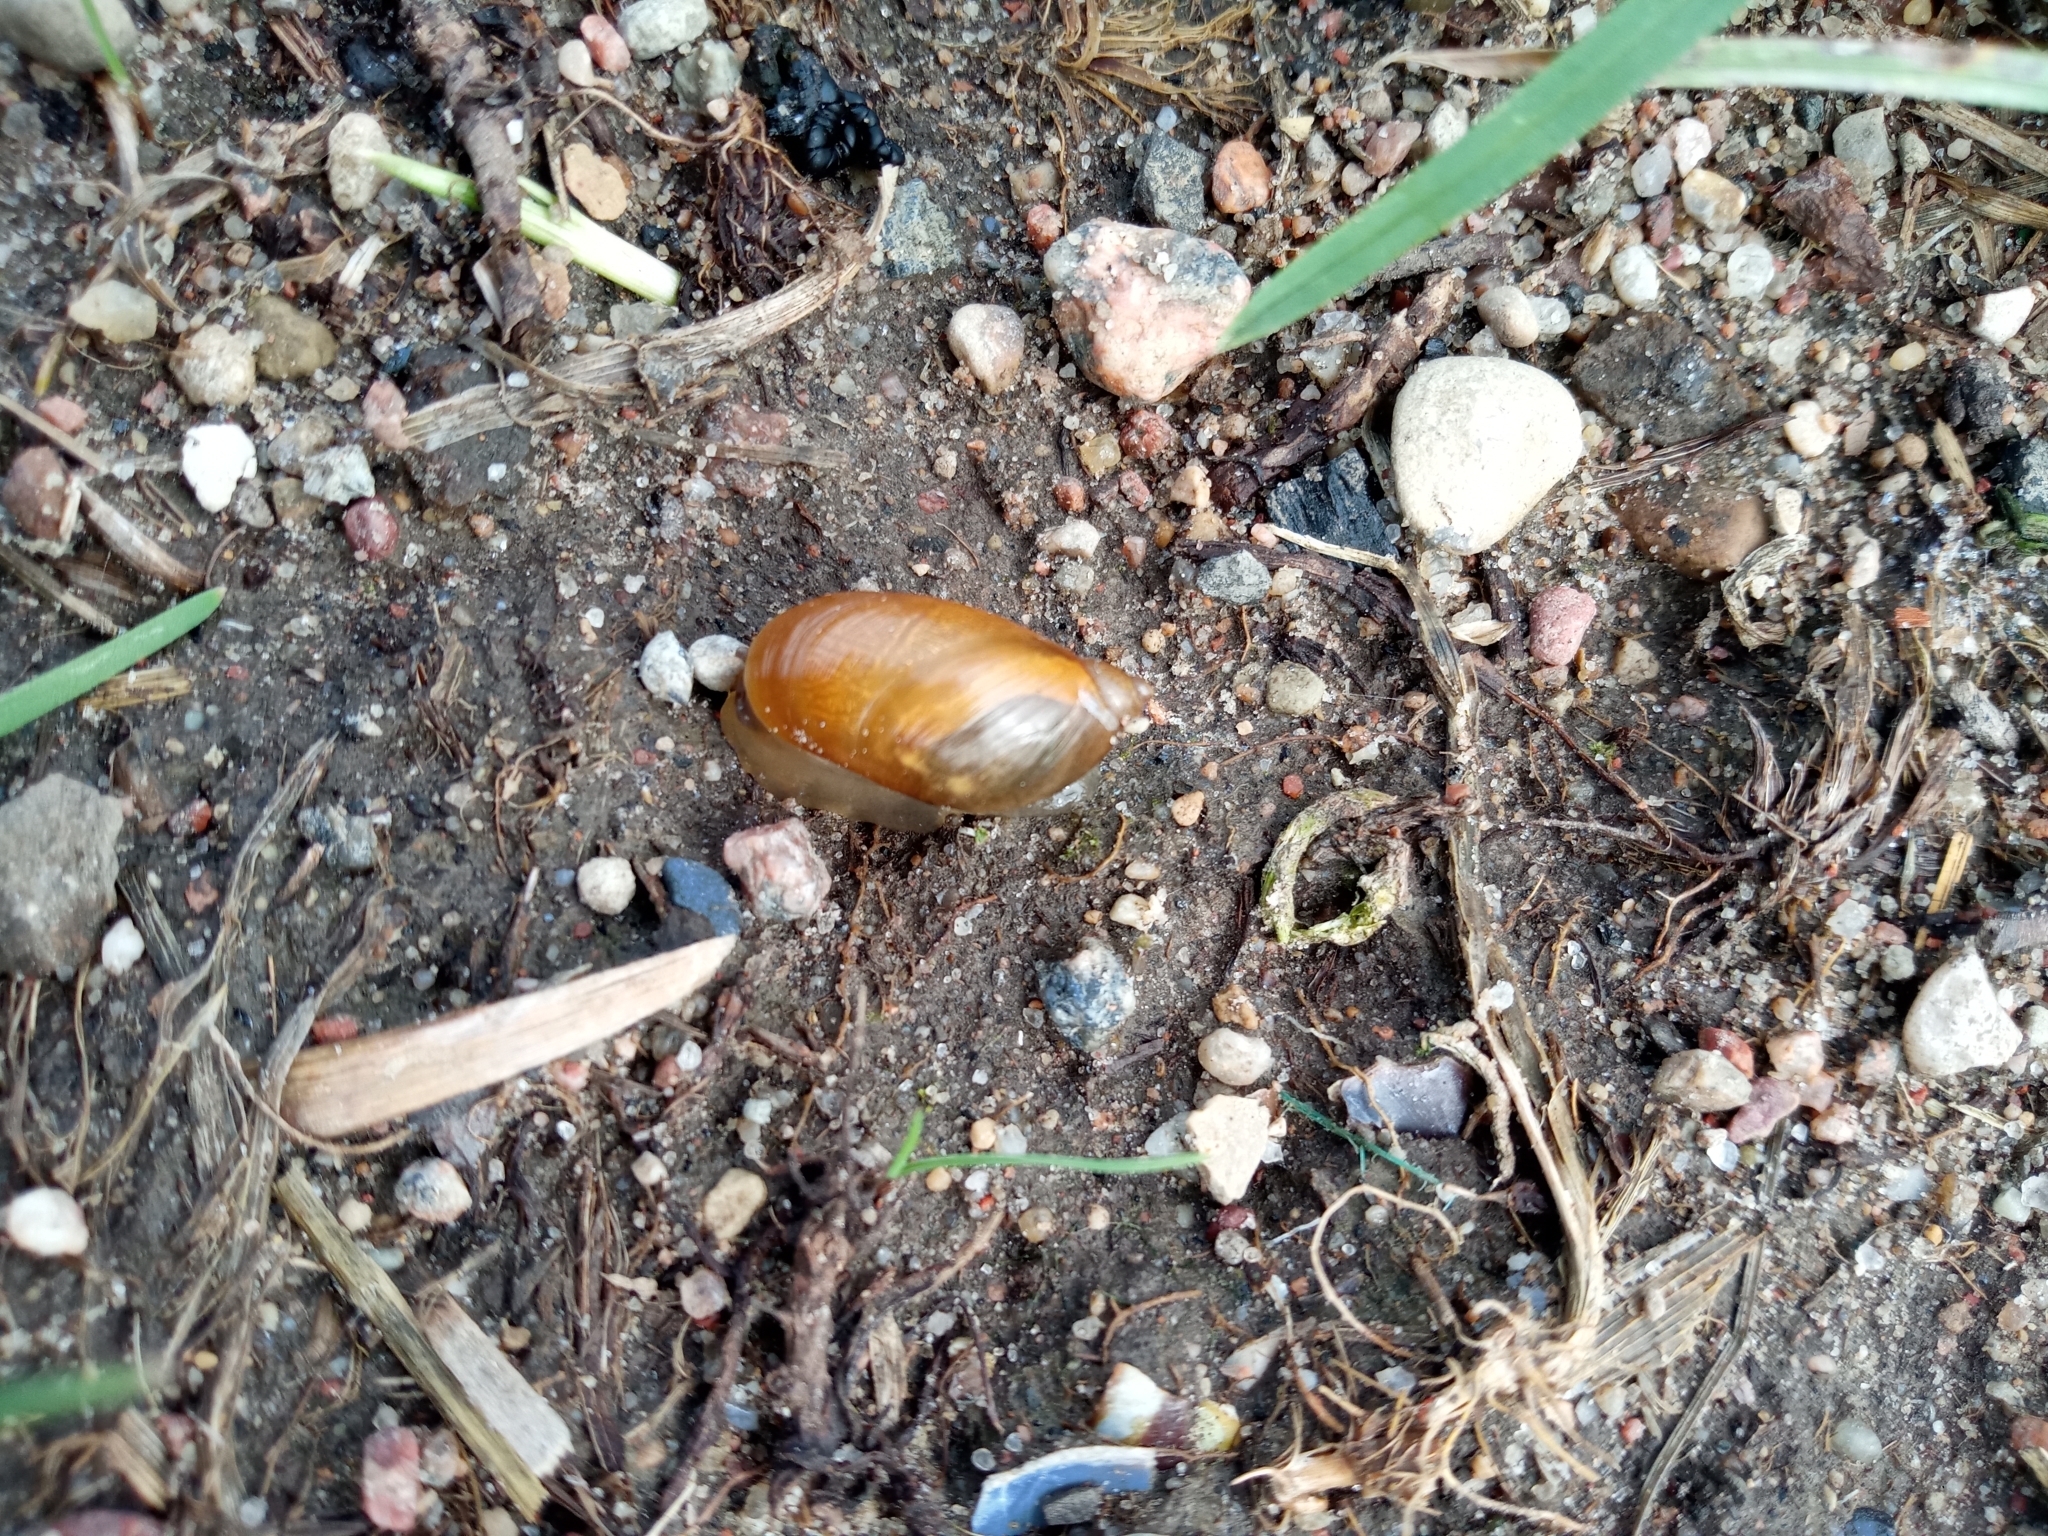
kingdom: Animalia
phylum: Mollusca
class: Gastropoda
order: Stylommatophora
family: Succineidae
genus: Succinea
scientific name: Succinea putris
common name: European ambersnail
